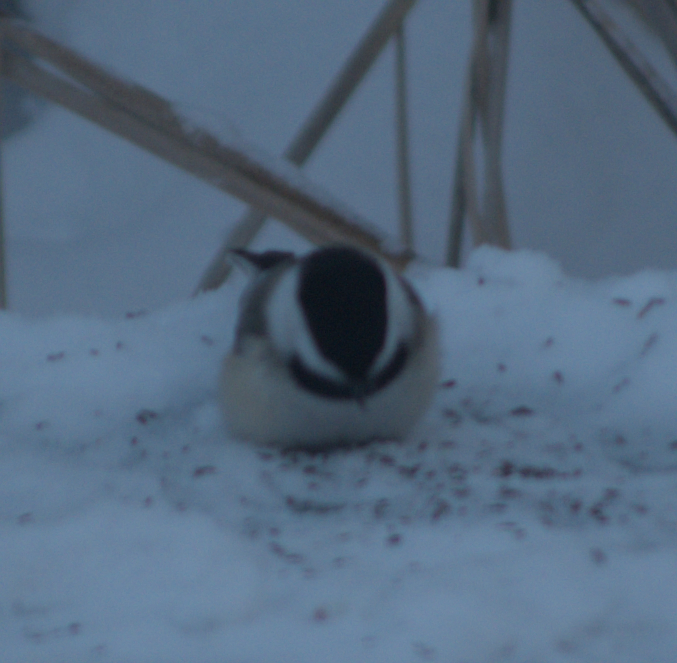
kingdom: Animalia
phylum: Chordata
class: Aves
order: Passeriformes
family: Paridae
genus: Poecile
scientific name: Poecile atricapillus
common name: Black-capped chickadee
